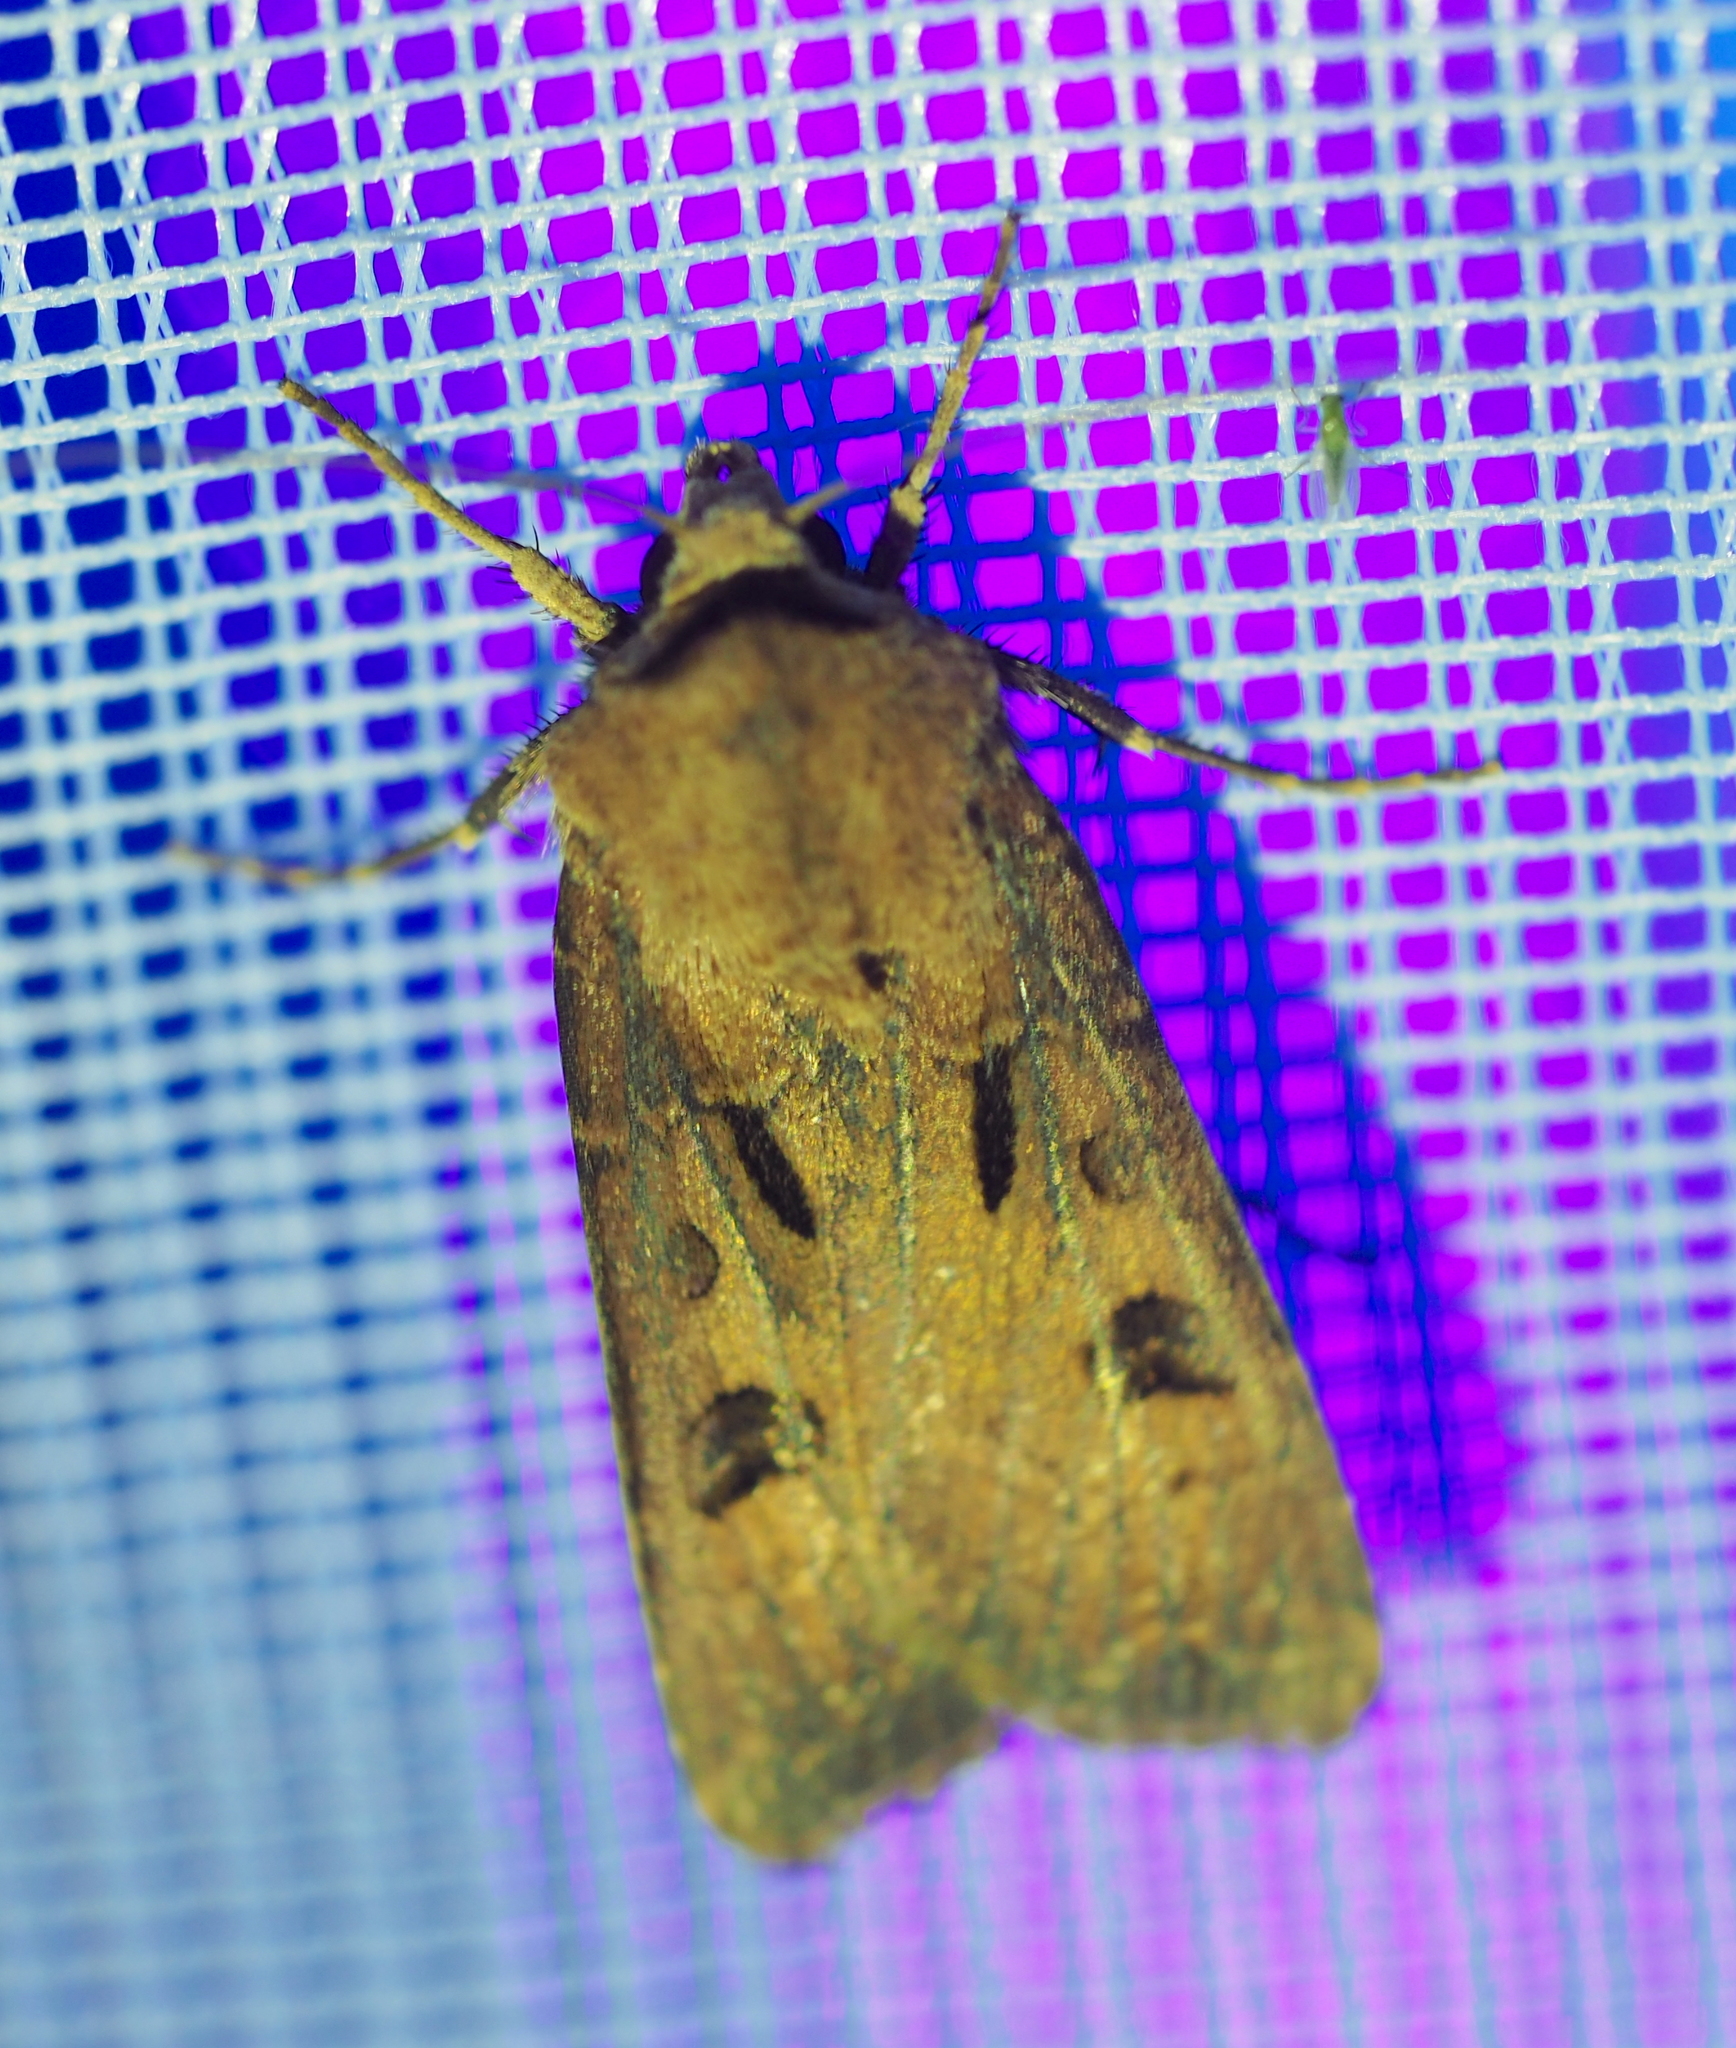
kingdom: Animalia
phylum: Arthropoda
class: Insecta
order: Lepidoptera
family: Noctuidae
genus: Agrotis
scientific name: Agrotis exclamationis
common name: Heart and dart
